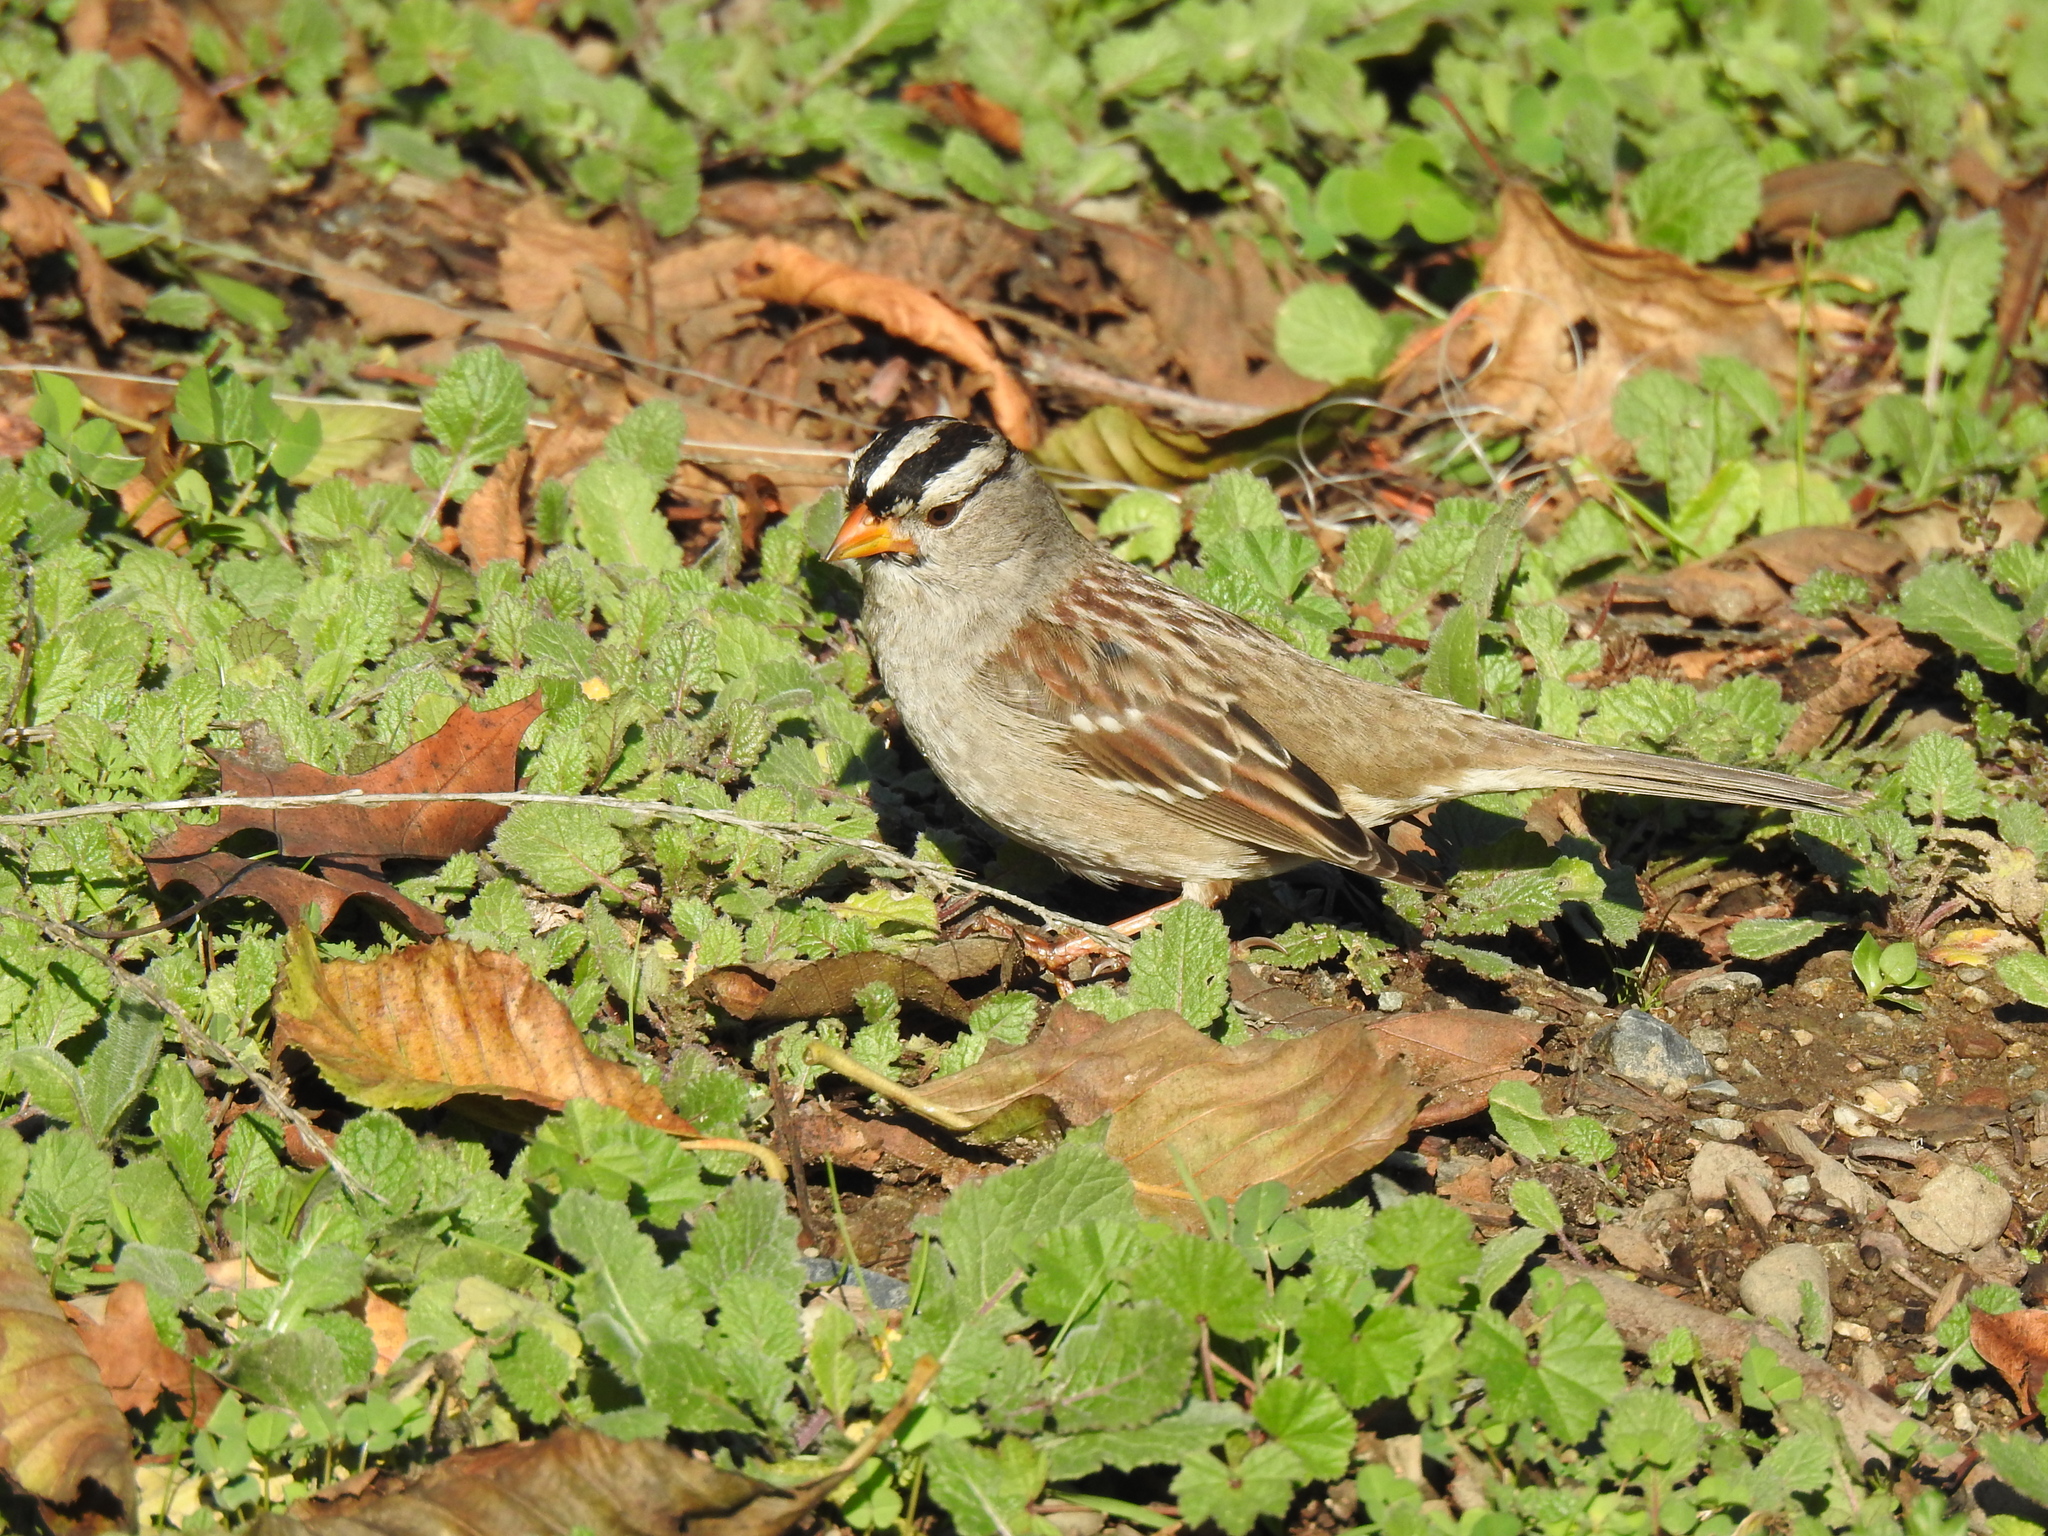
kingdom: Animalia
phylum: Chordata
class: Aves
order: Passeriformes
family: Passerellidae
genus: Zonotrichia
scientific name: Zonotrichia leucophrys
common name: White-crowned sparrow
